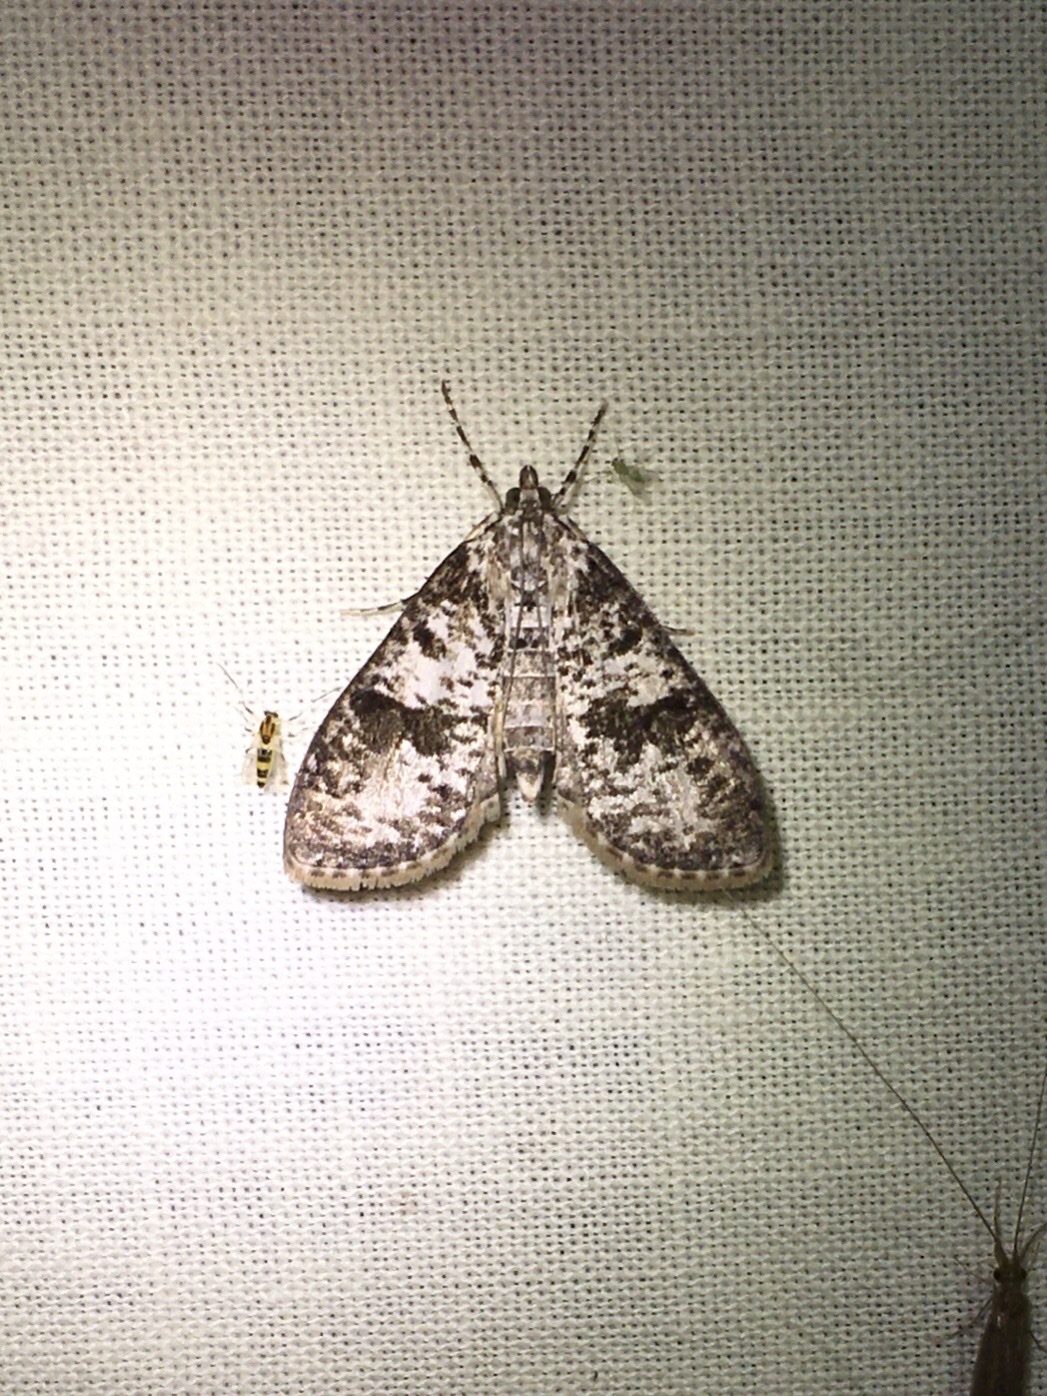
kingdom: Animalia
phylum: Arthropoda
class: Insecta
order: Lepidoptera
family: Crambidae
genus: Palpita
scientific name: Palpita magniferalis
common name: Splendid palpita moth
